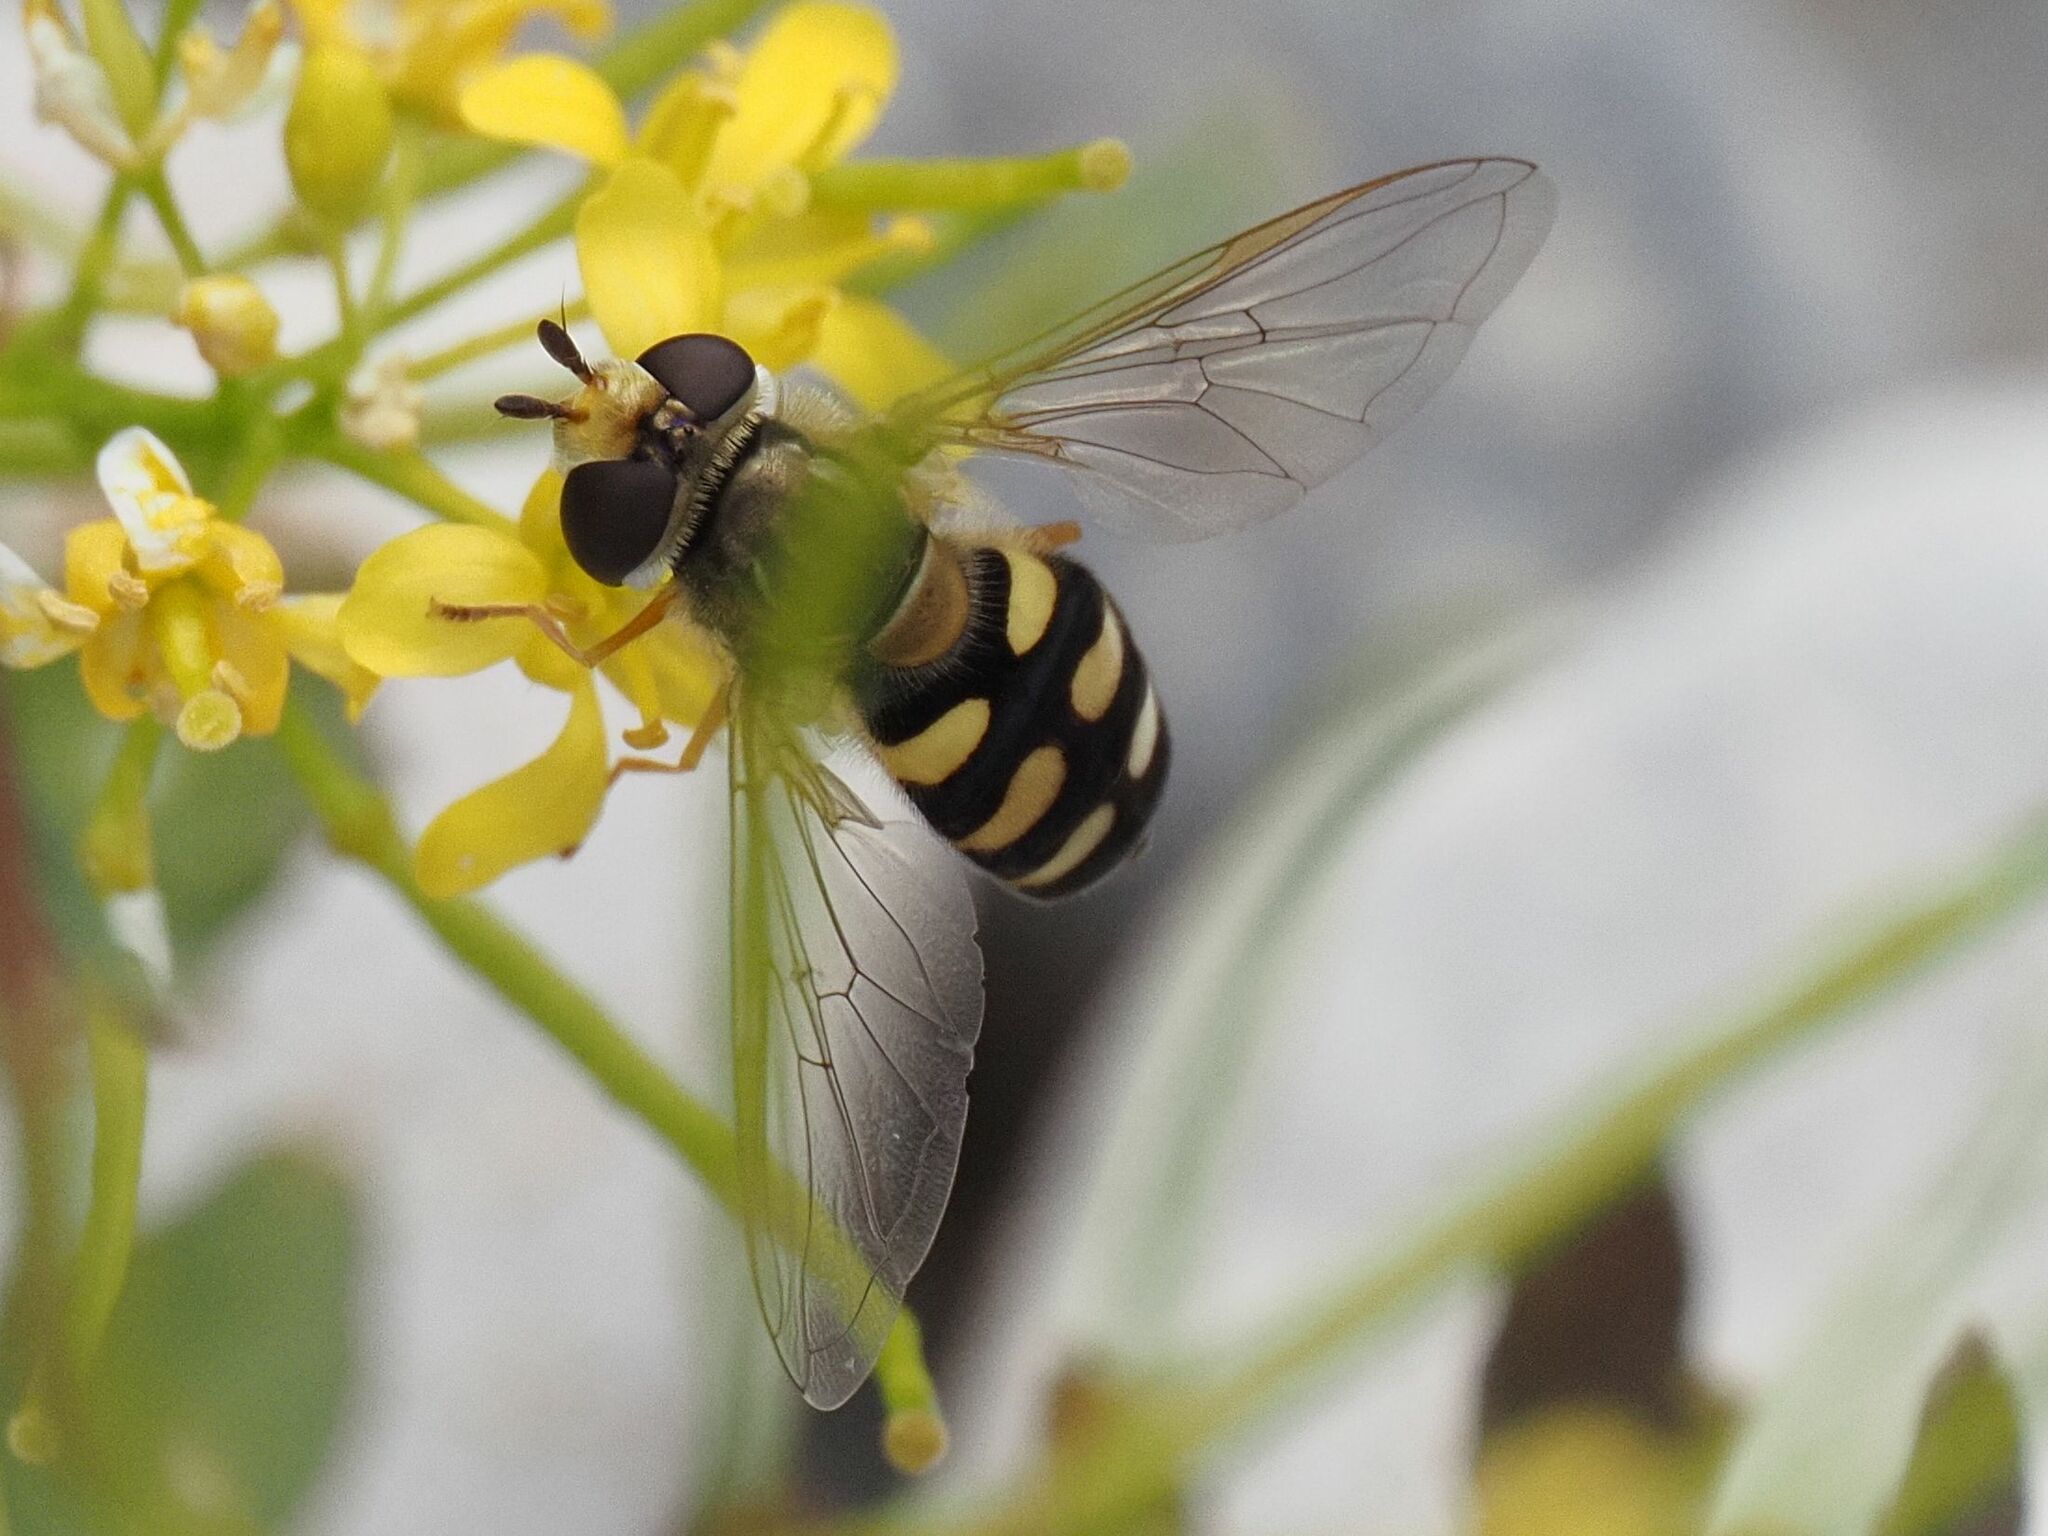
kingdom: Animalia
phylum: Arthropoda
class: Insecta
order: Diptera
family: Syrphidae
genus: Eupeodes
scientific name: Eupeodes corollae
